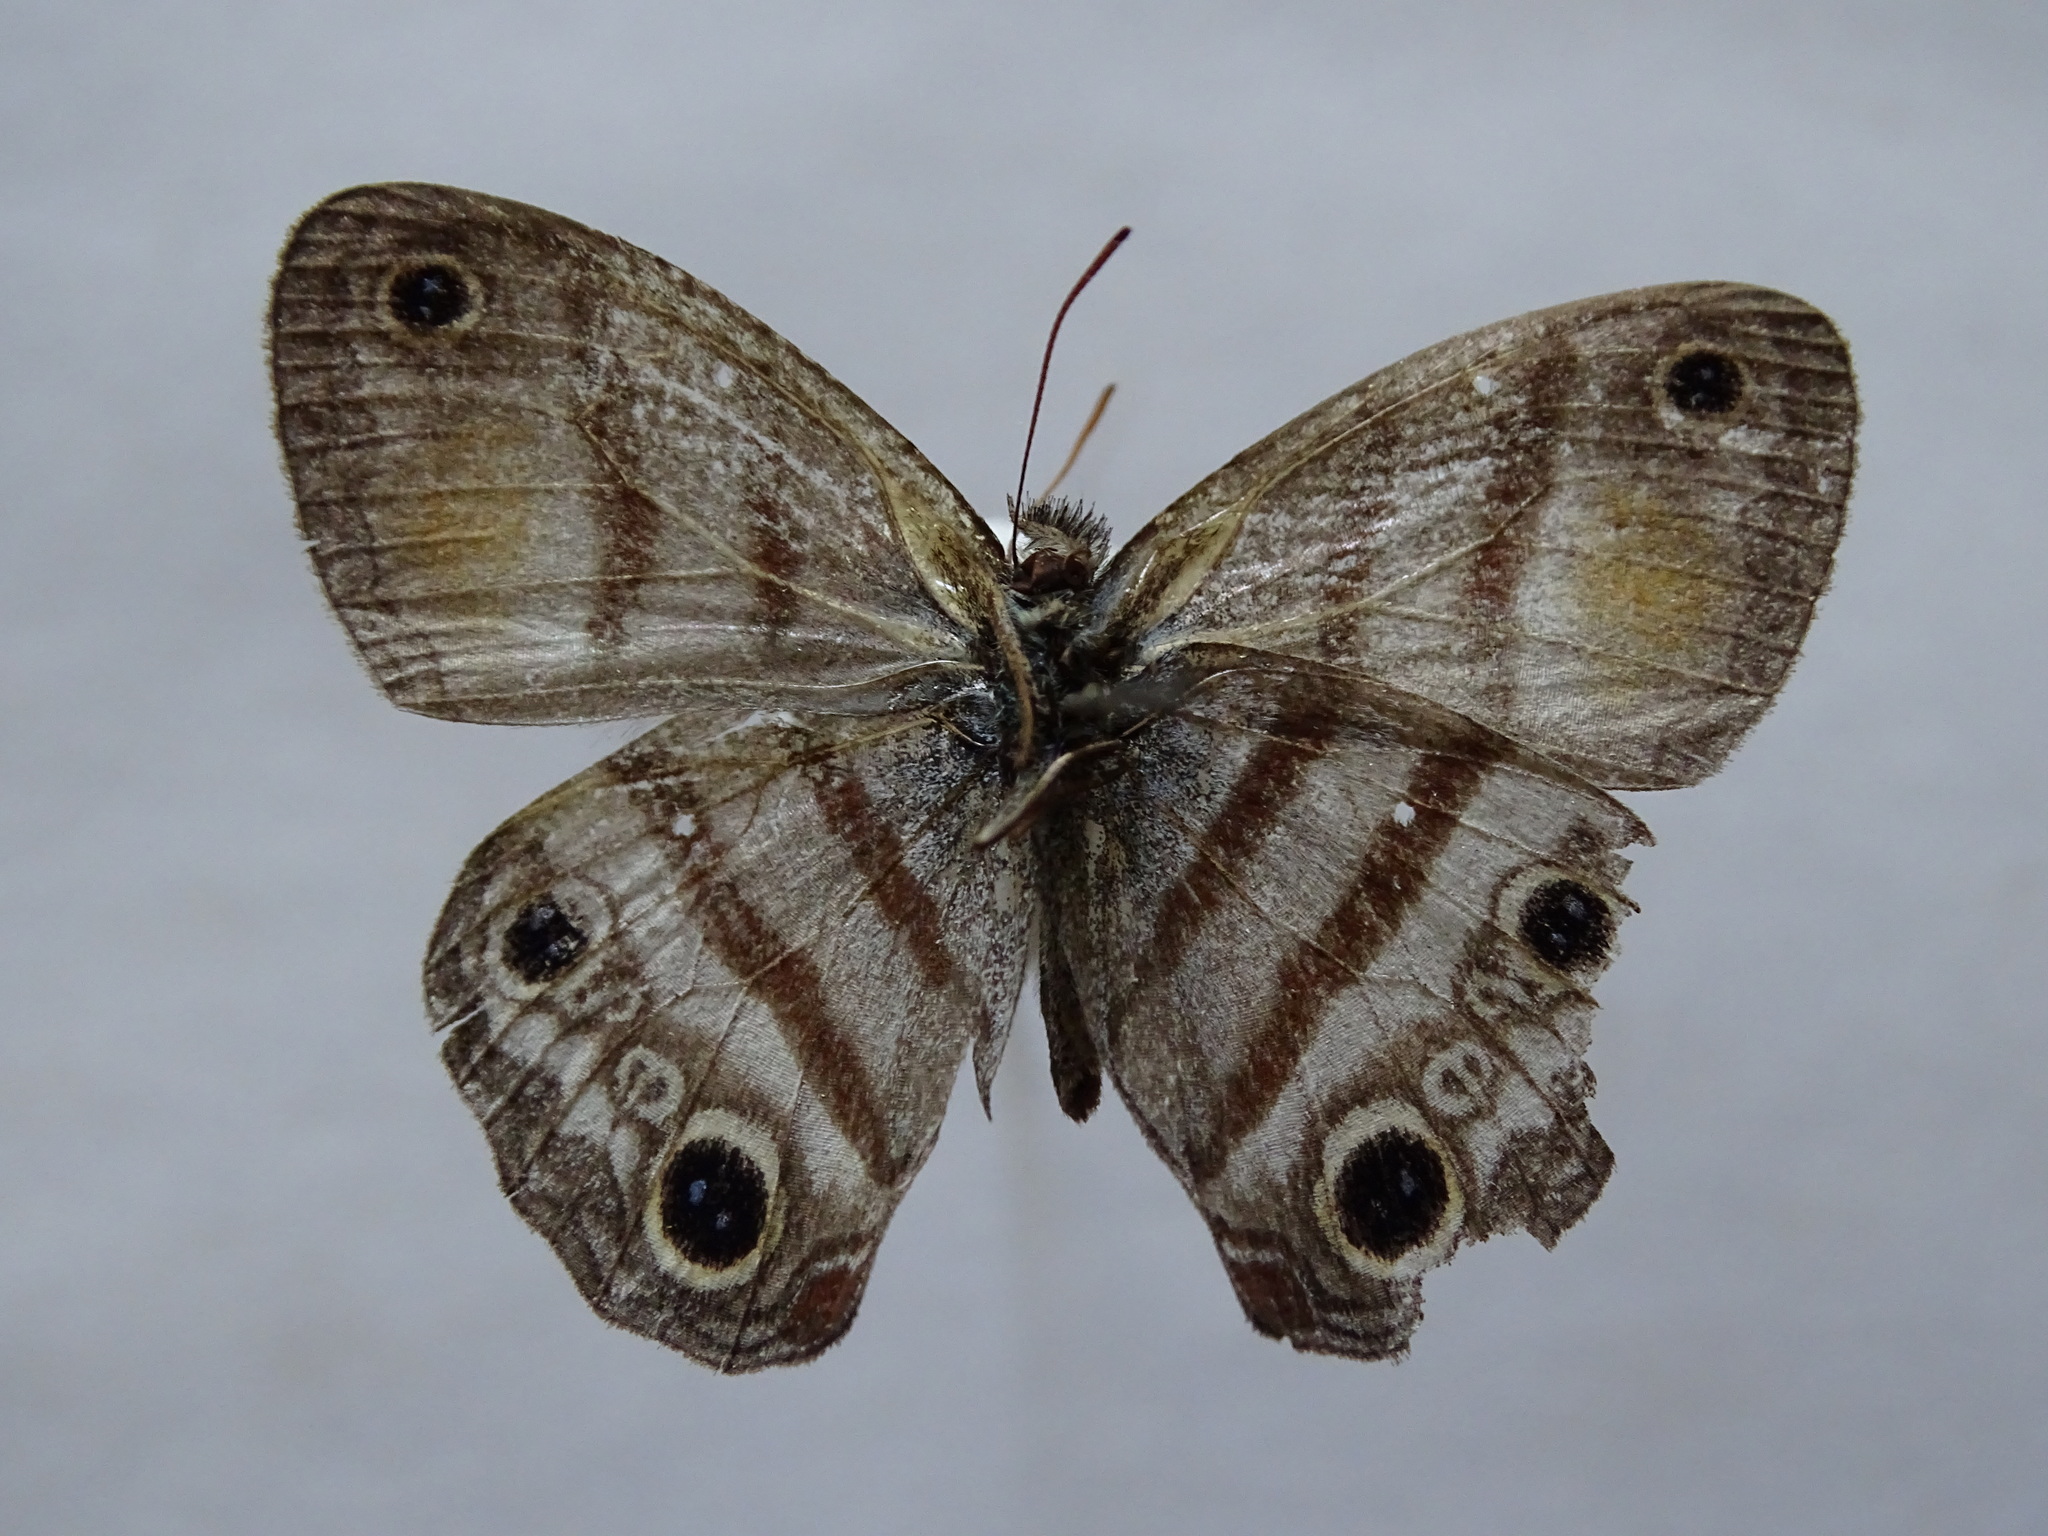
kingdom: Animalia
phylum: Arthropoda
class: Insecta
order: Lepidoptera
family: Nymphalidae
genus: Argyreuptychia
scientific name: Argyreuptychia labe
